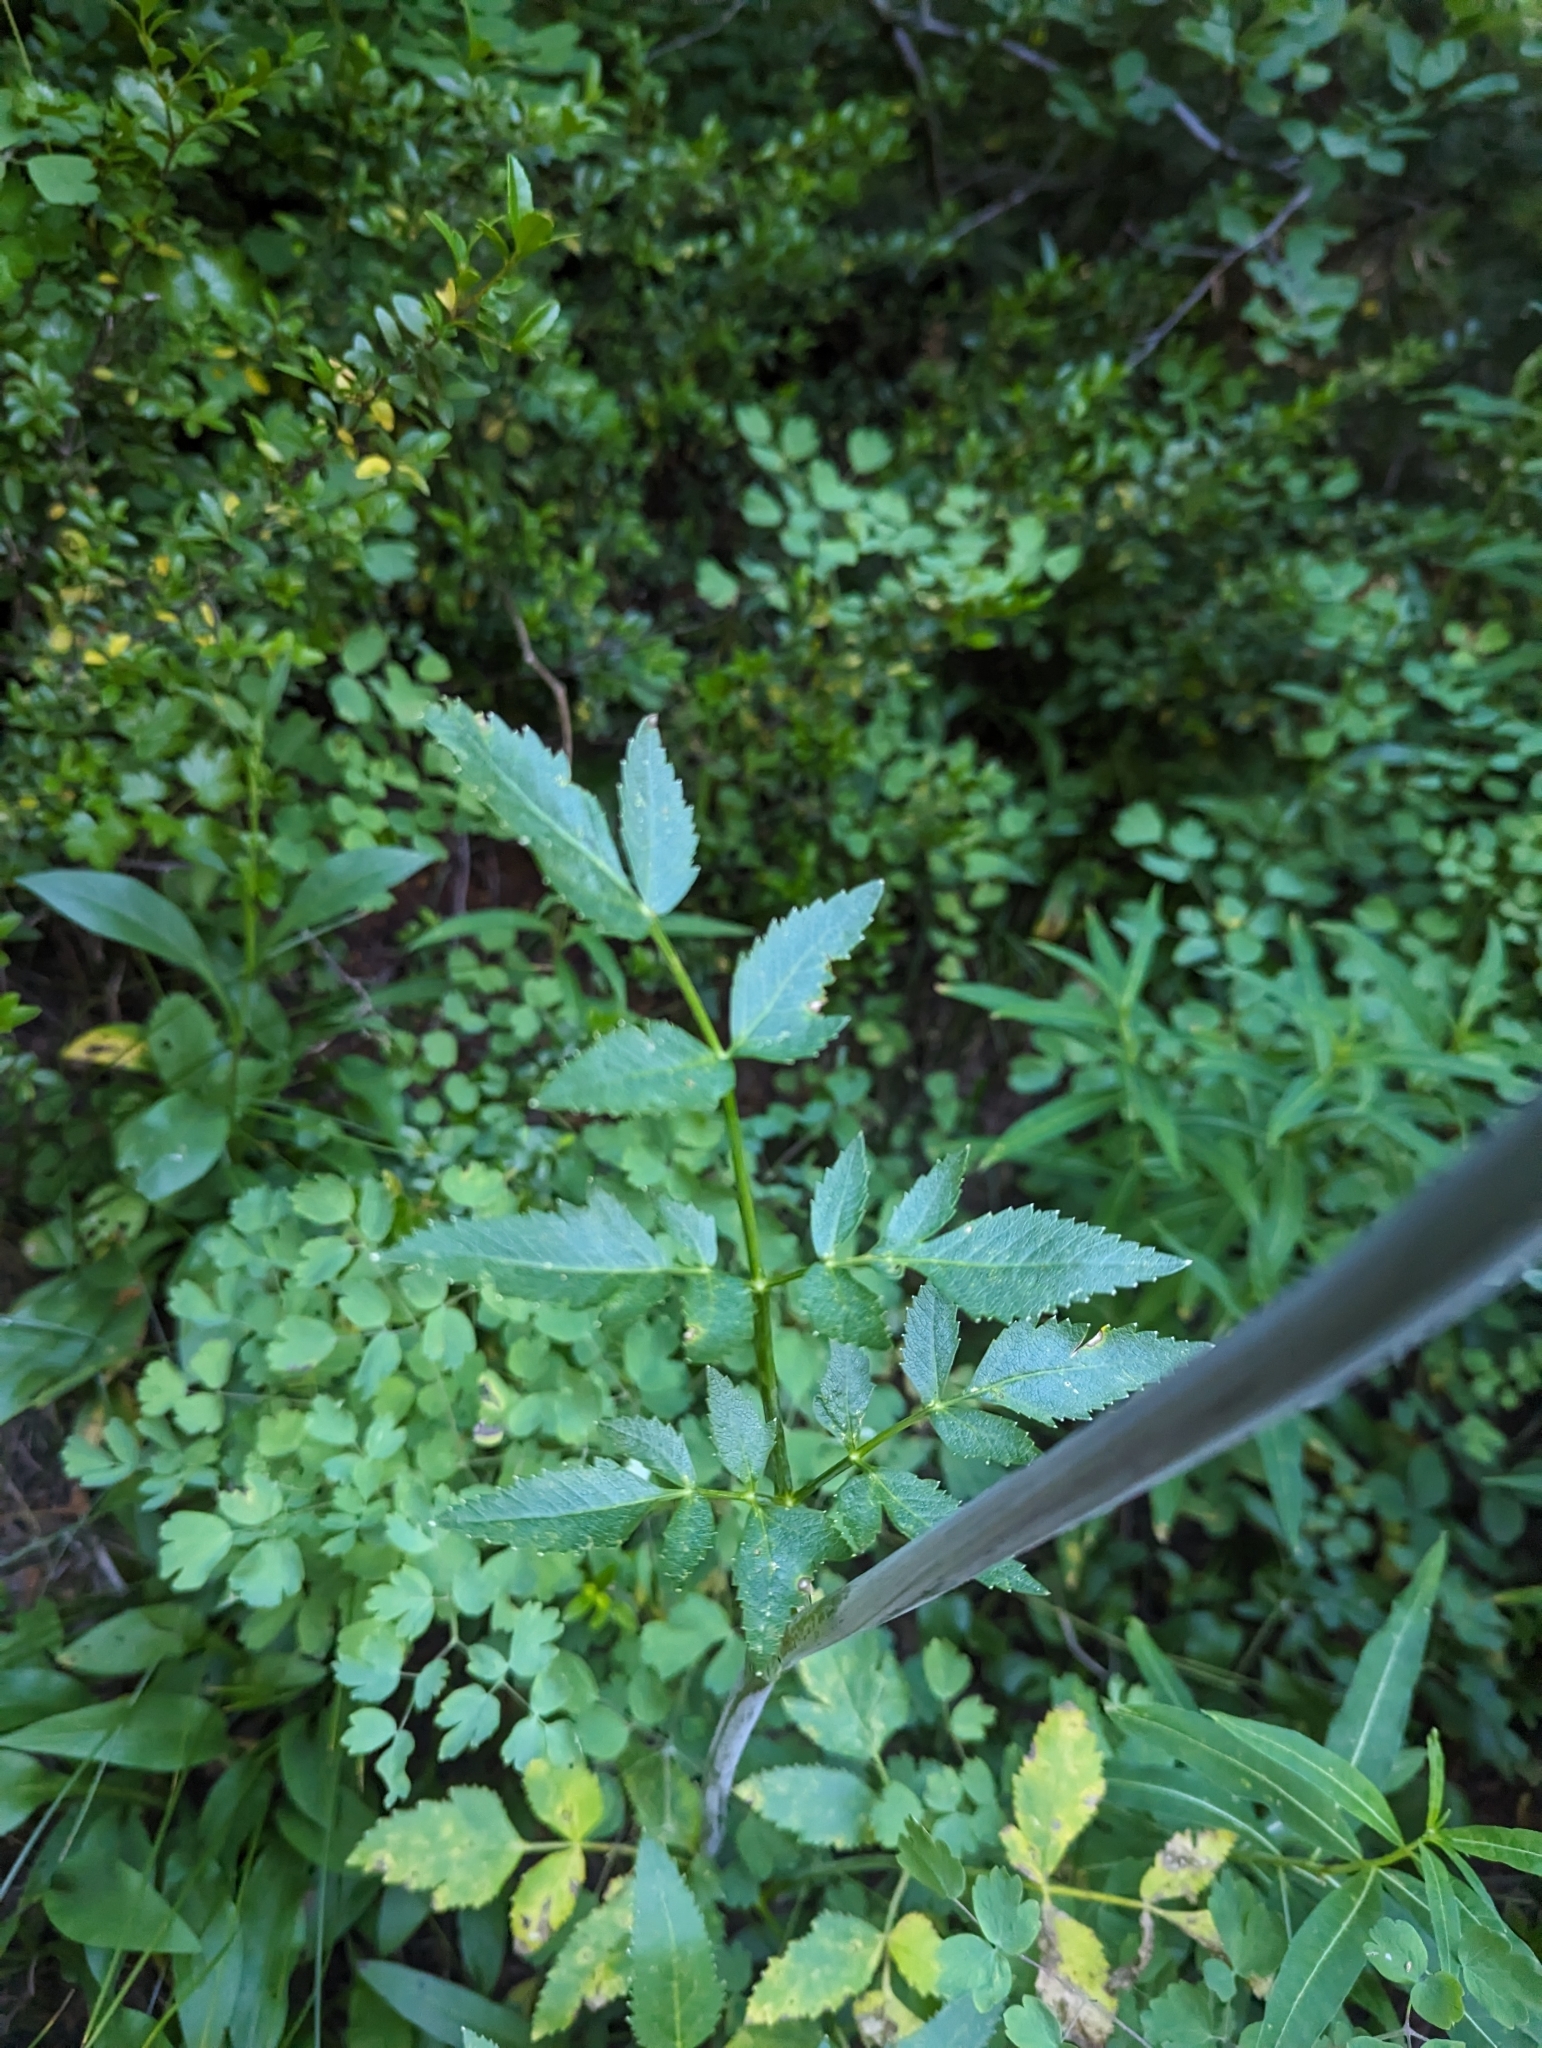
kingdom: Plantae
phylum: Tracheophyta
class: Magnoliopsida
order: Apiales
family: Apiaceae
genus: Angelica
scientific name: Angelica arguta
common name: Lyall's angelica
